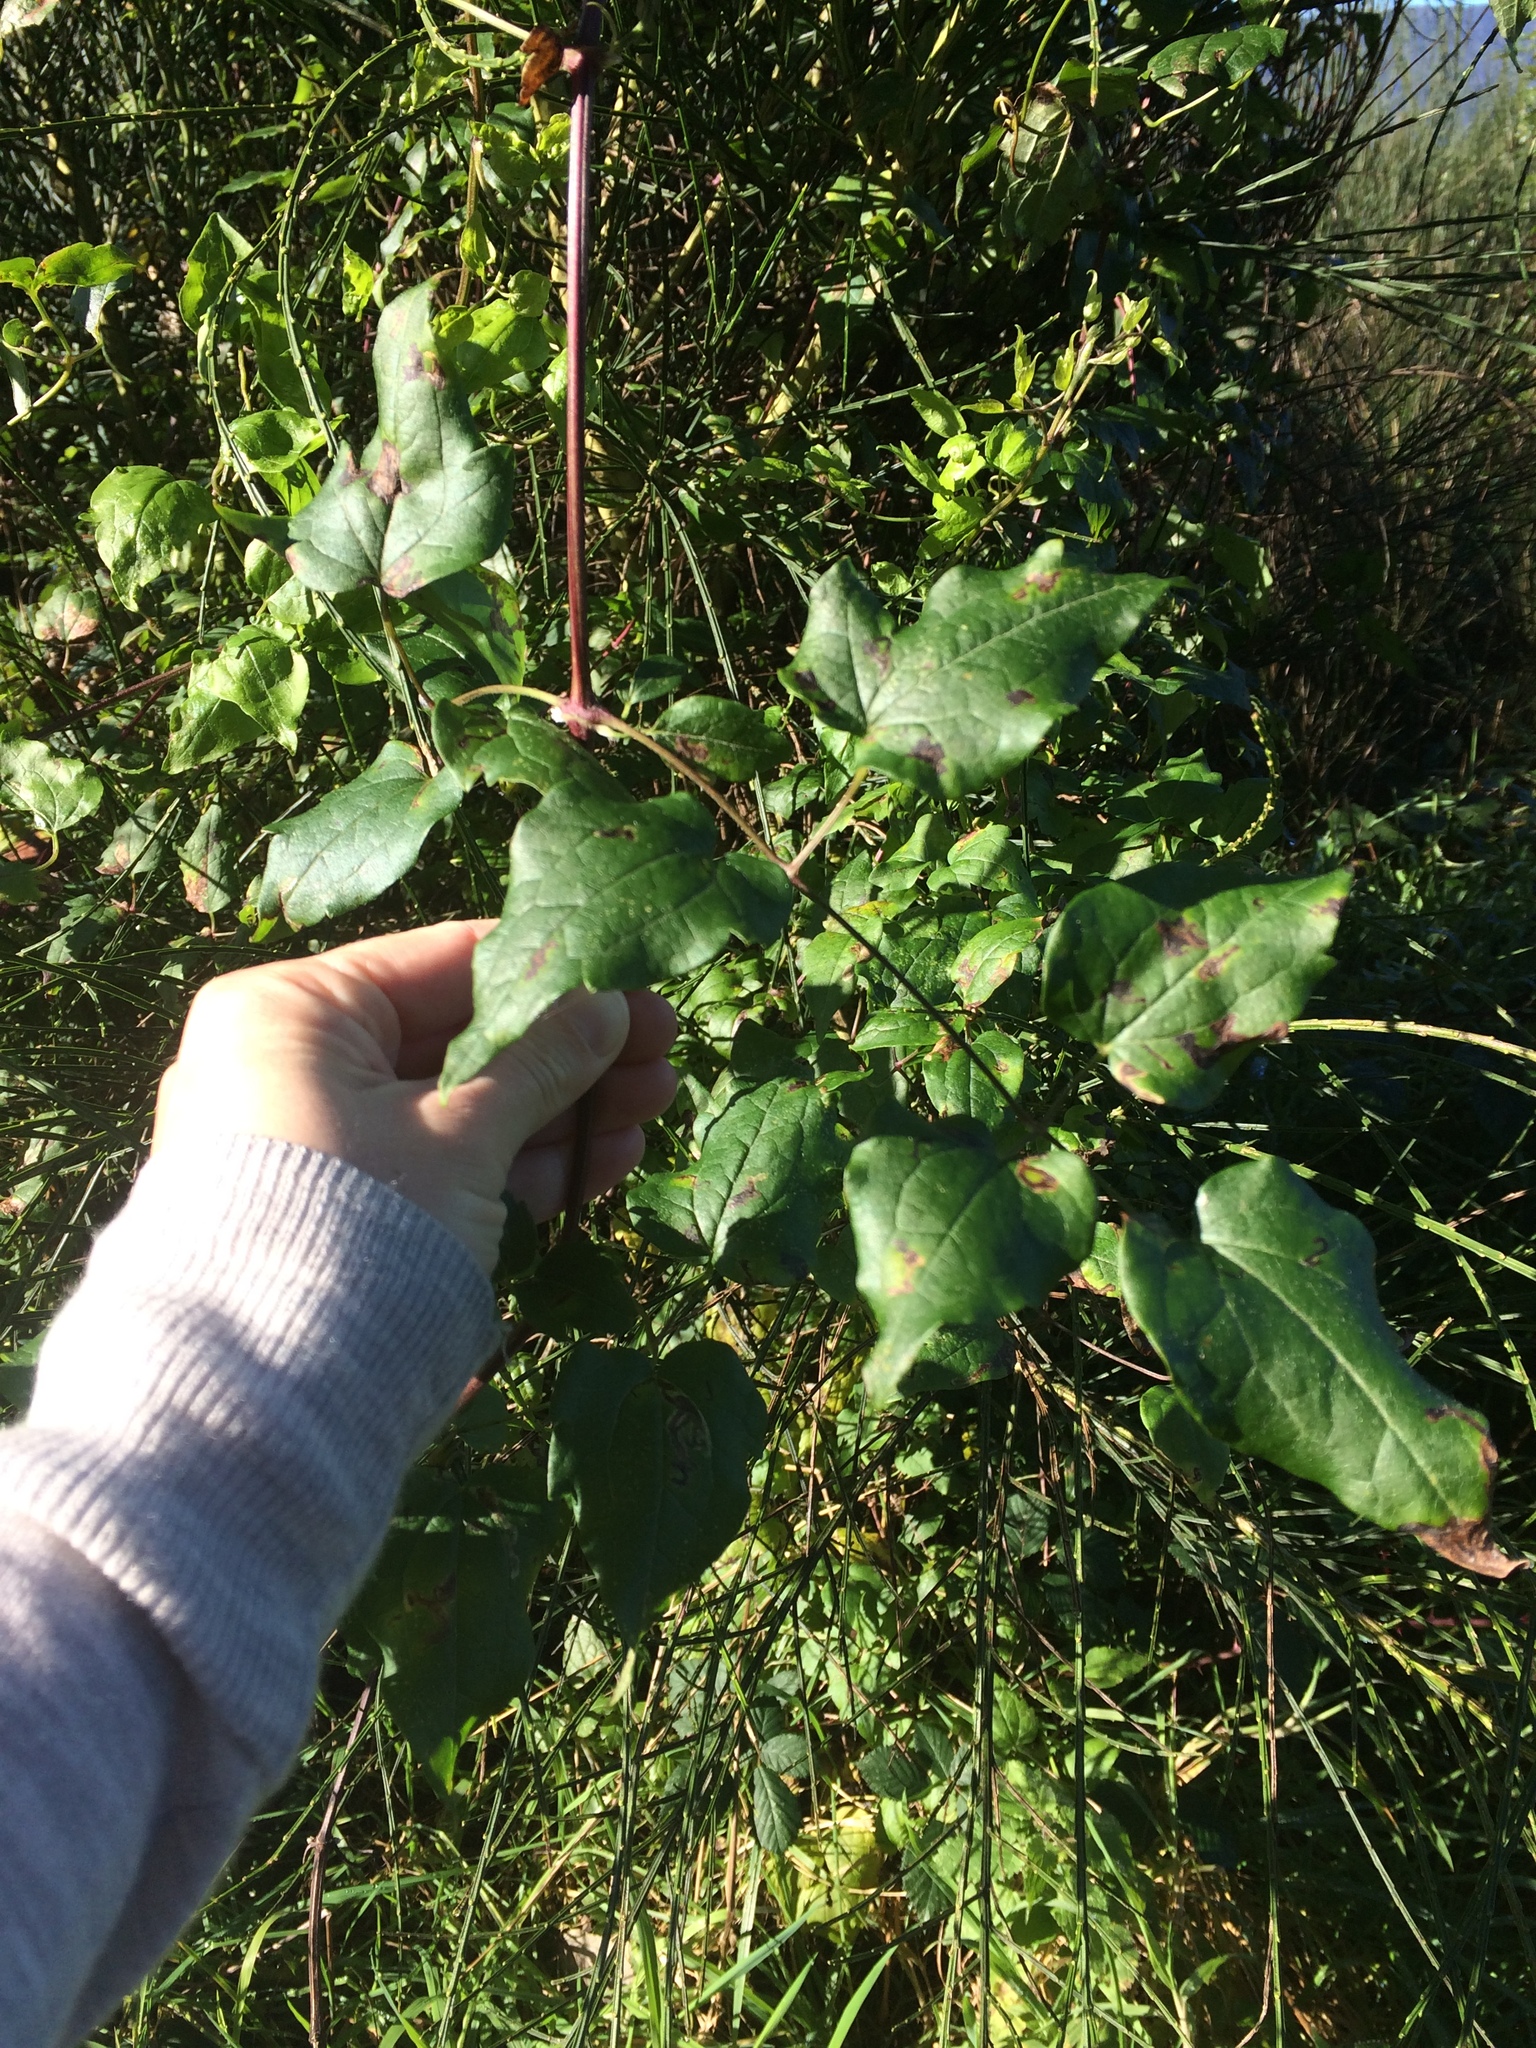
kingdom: Plantae
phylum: Tracheophyta
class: Magnoliopsida
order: Ranunculales
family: Ranunculaceae
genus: Clematis
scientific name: Clematis vitalba
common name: Evergreen clematis
